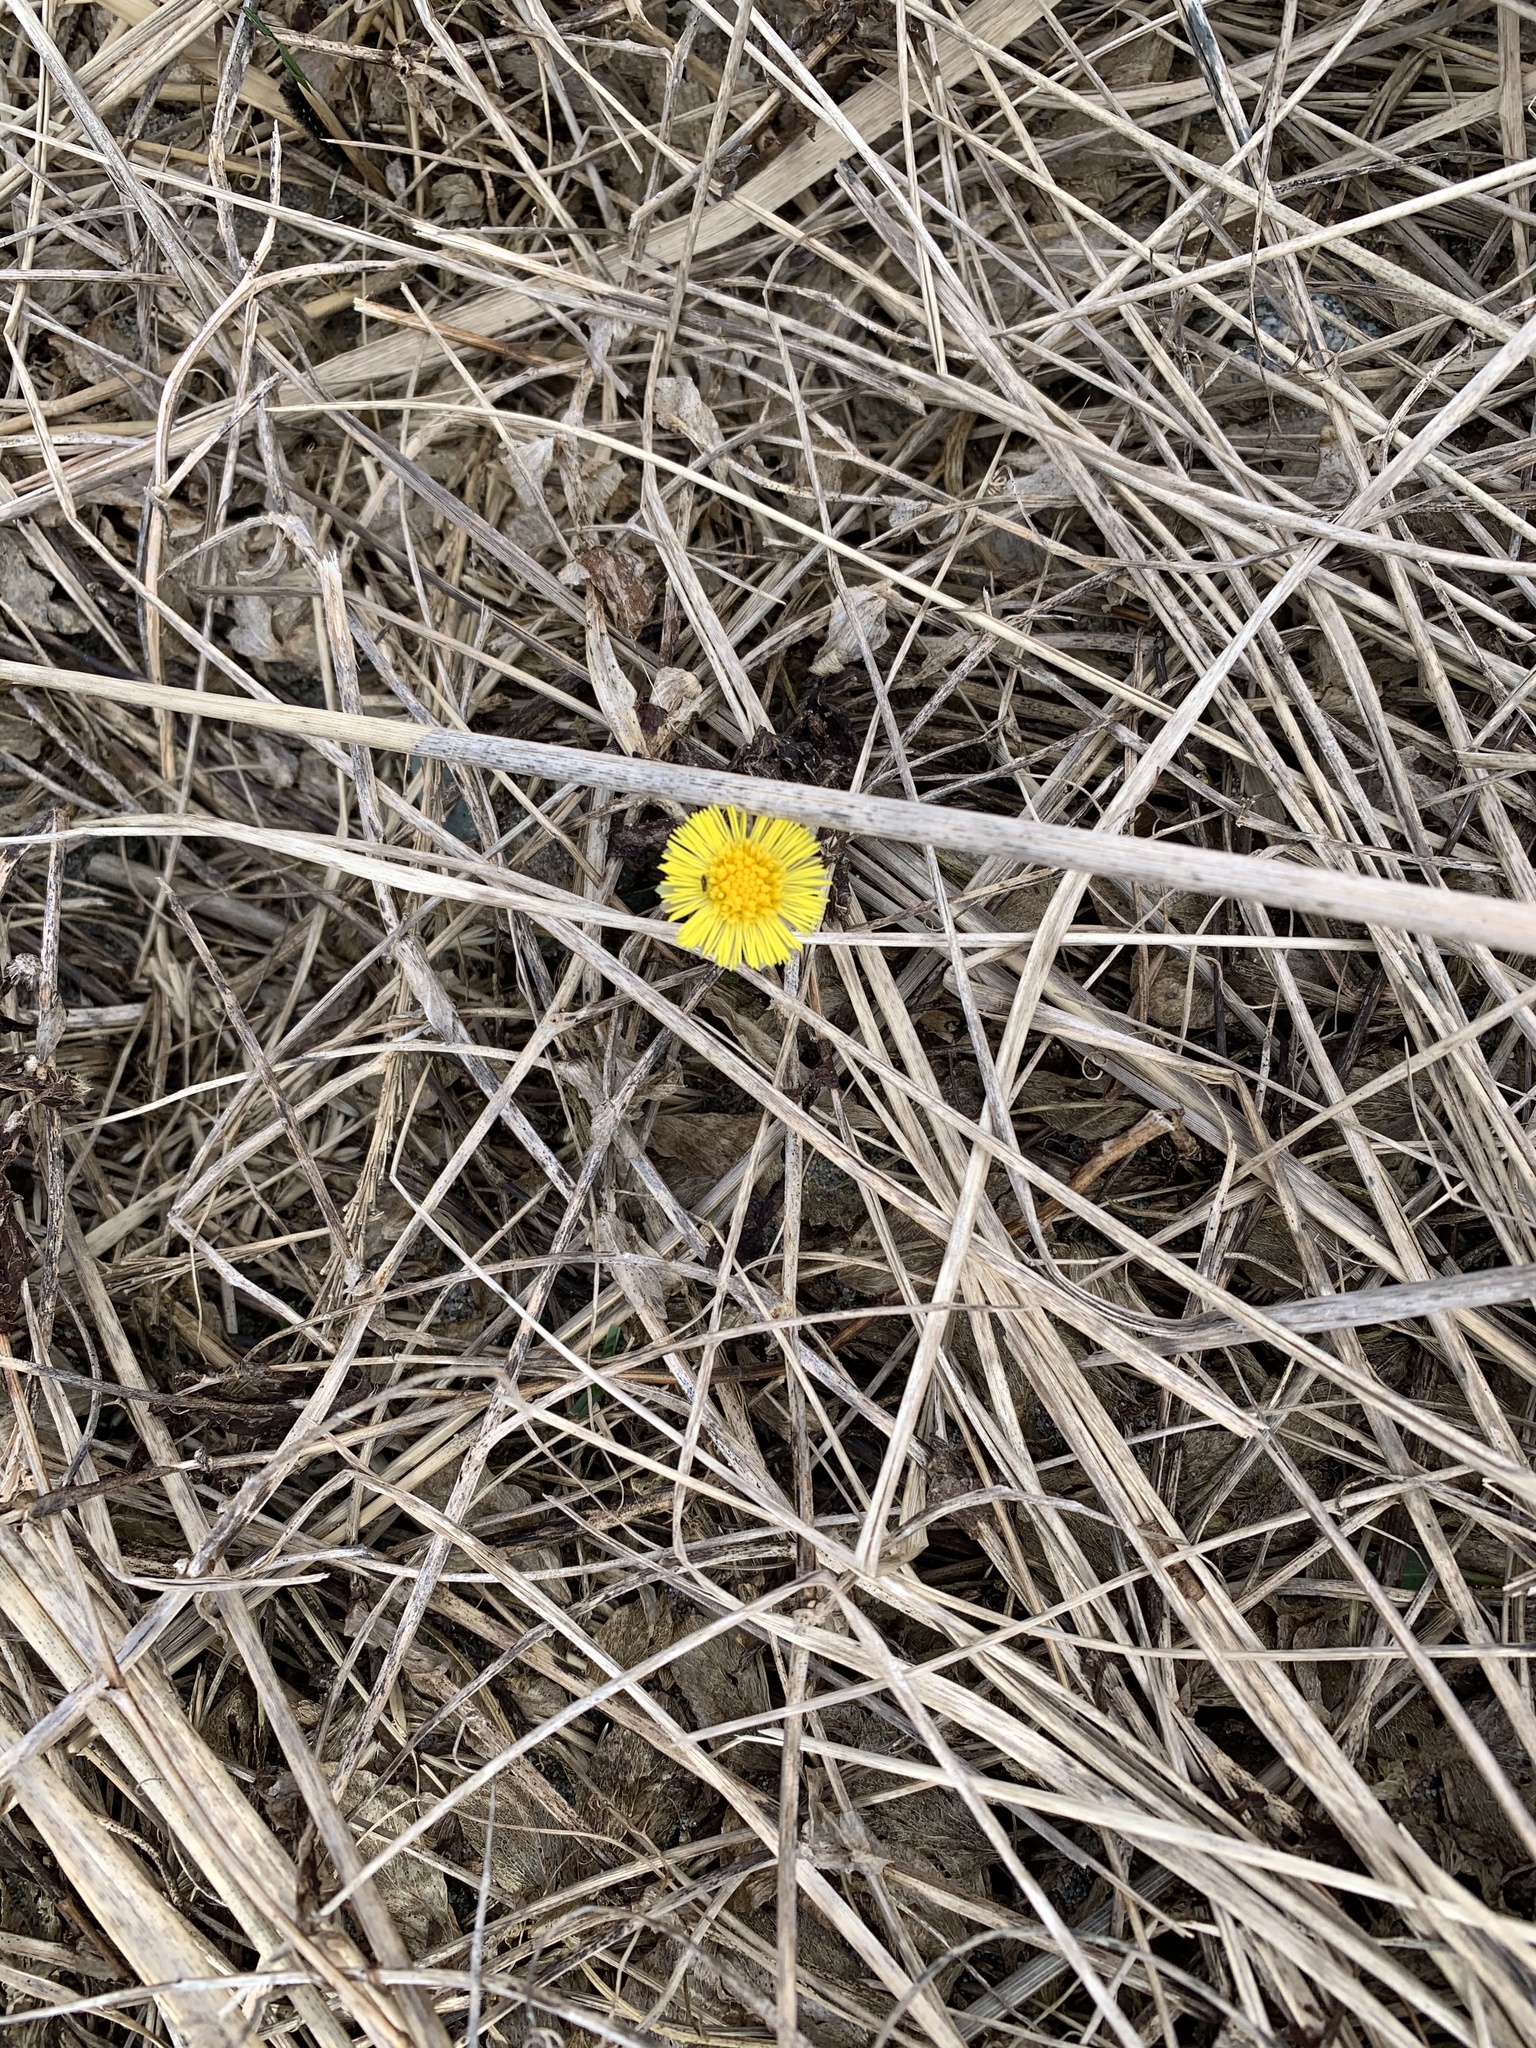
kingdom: Plantae
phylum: Tracheophyta
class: Magnoliopsida
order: Asterales
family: Asteraceae
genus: Tussilago
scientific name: Tussilago farfara
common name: Coltsfoot
